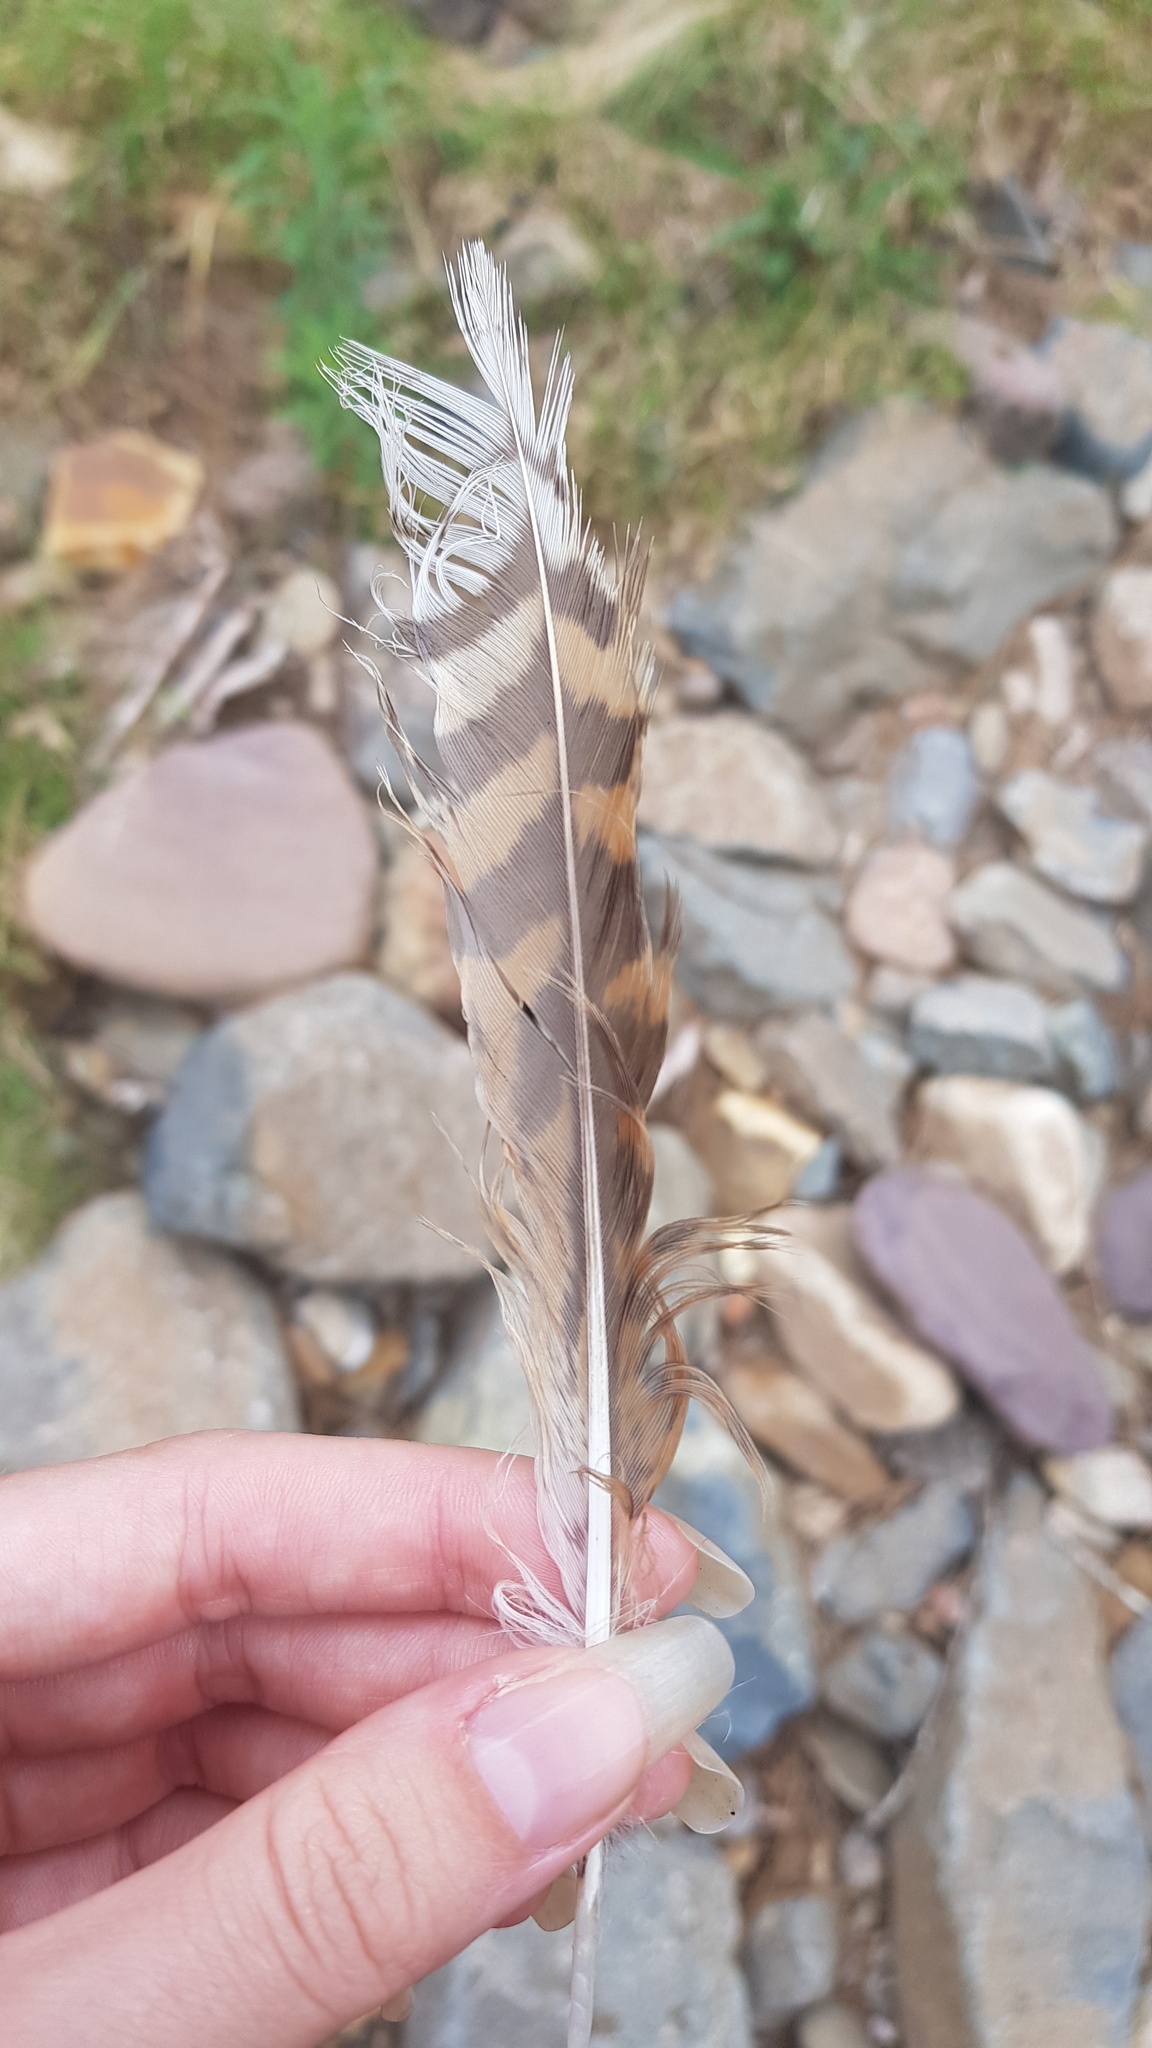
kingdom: Animalia
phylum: Chordata
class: Aves
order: Coraciiformes
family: Alcedinidae
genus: Dacelo
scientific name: Dacelo novaeguineae
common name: Laughing kookaburra
